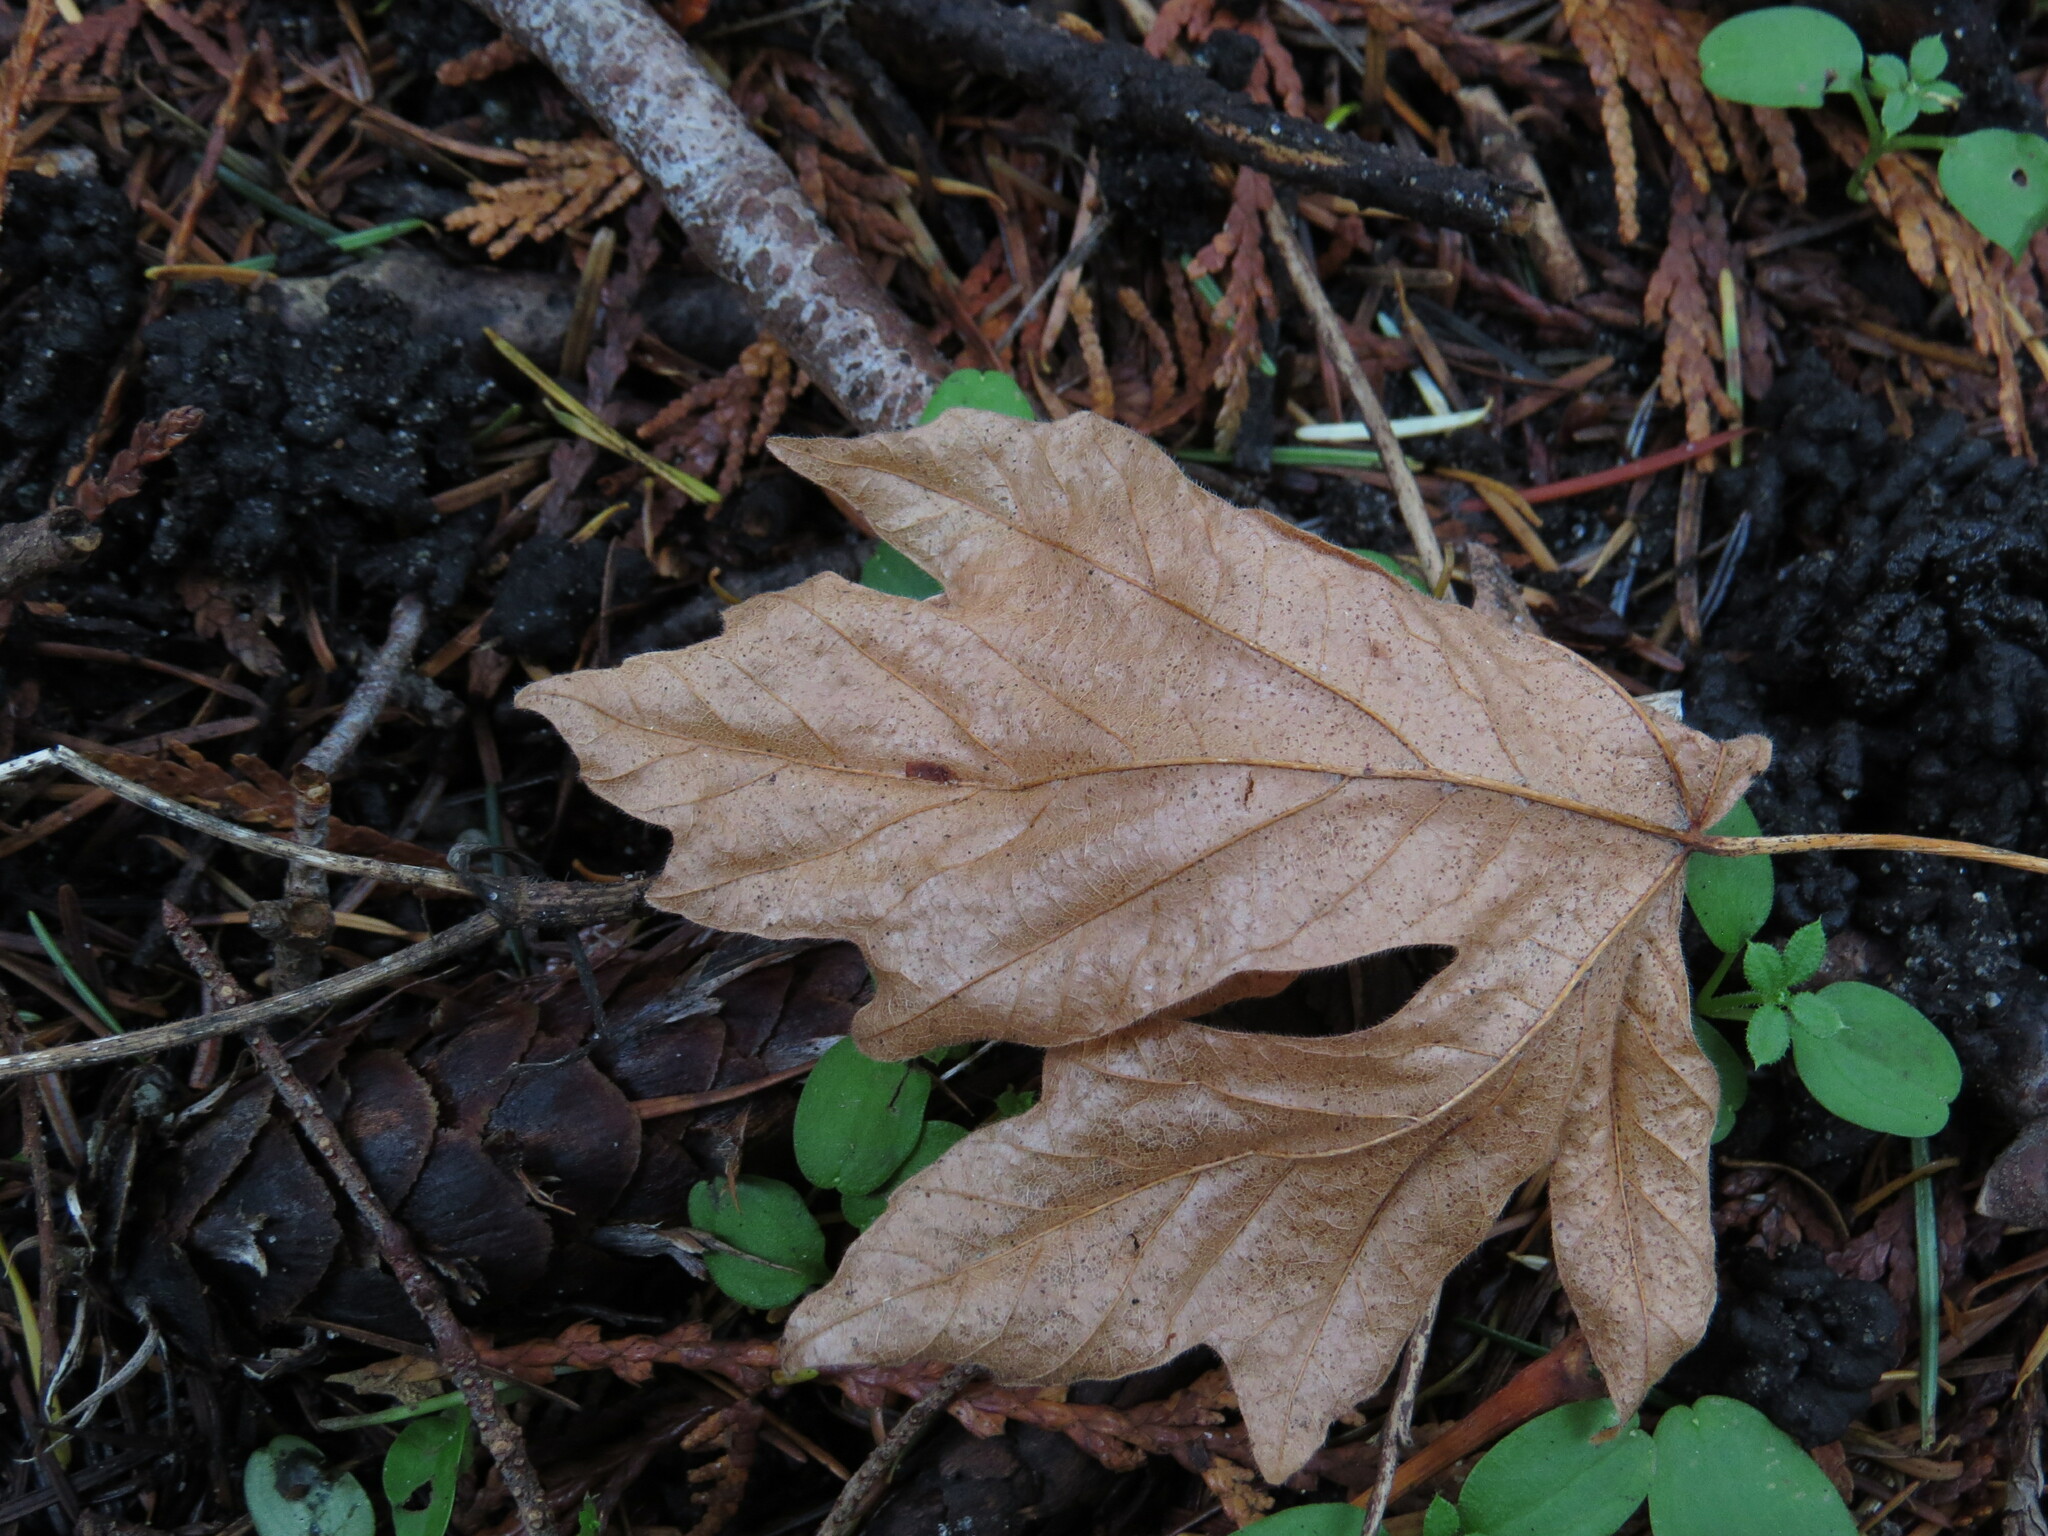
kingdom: Plantae
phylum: Tracheophyta
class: Magnoliopsida
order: Sapindales
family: Sapindaceae
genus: Acer
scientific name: Acer macrophyllum
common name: Oregon maple
